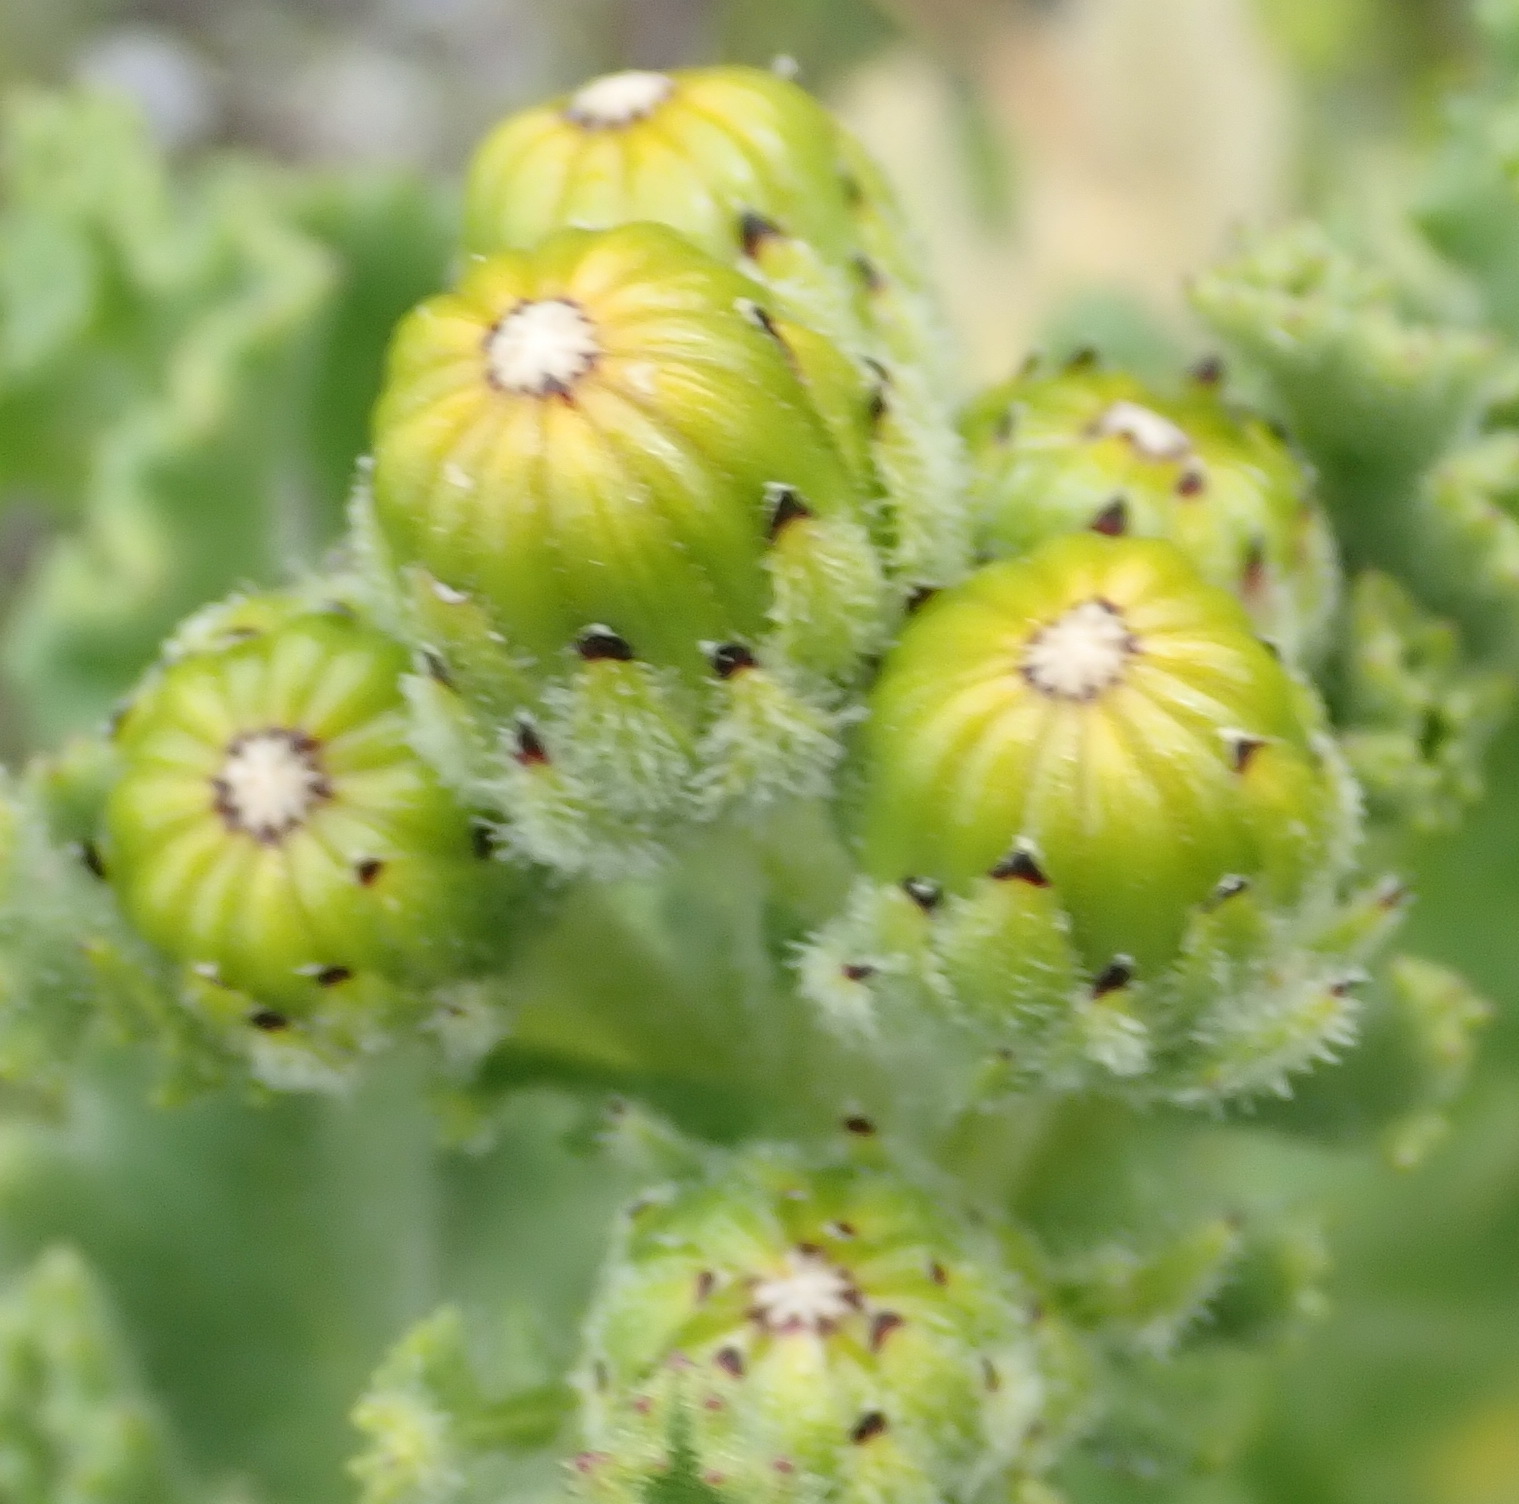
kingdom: Plantae
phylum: Tracheophyta
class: Magnoliopsida
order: Asterales
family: Asteraceae
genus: Senecio
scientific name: Senecio elegans
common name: Purple groundsel
